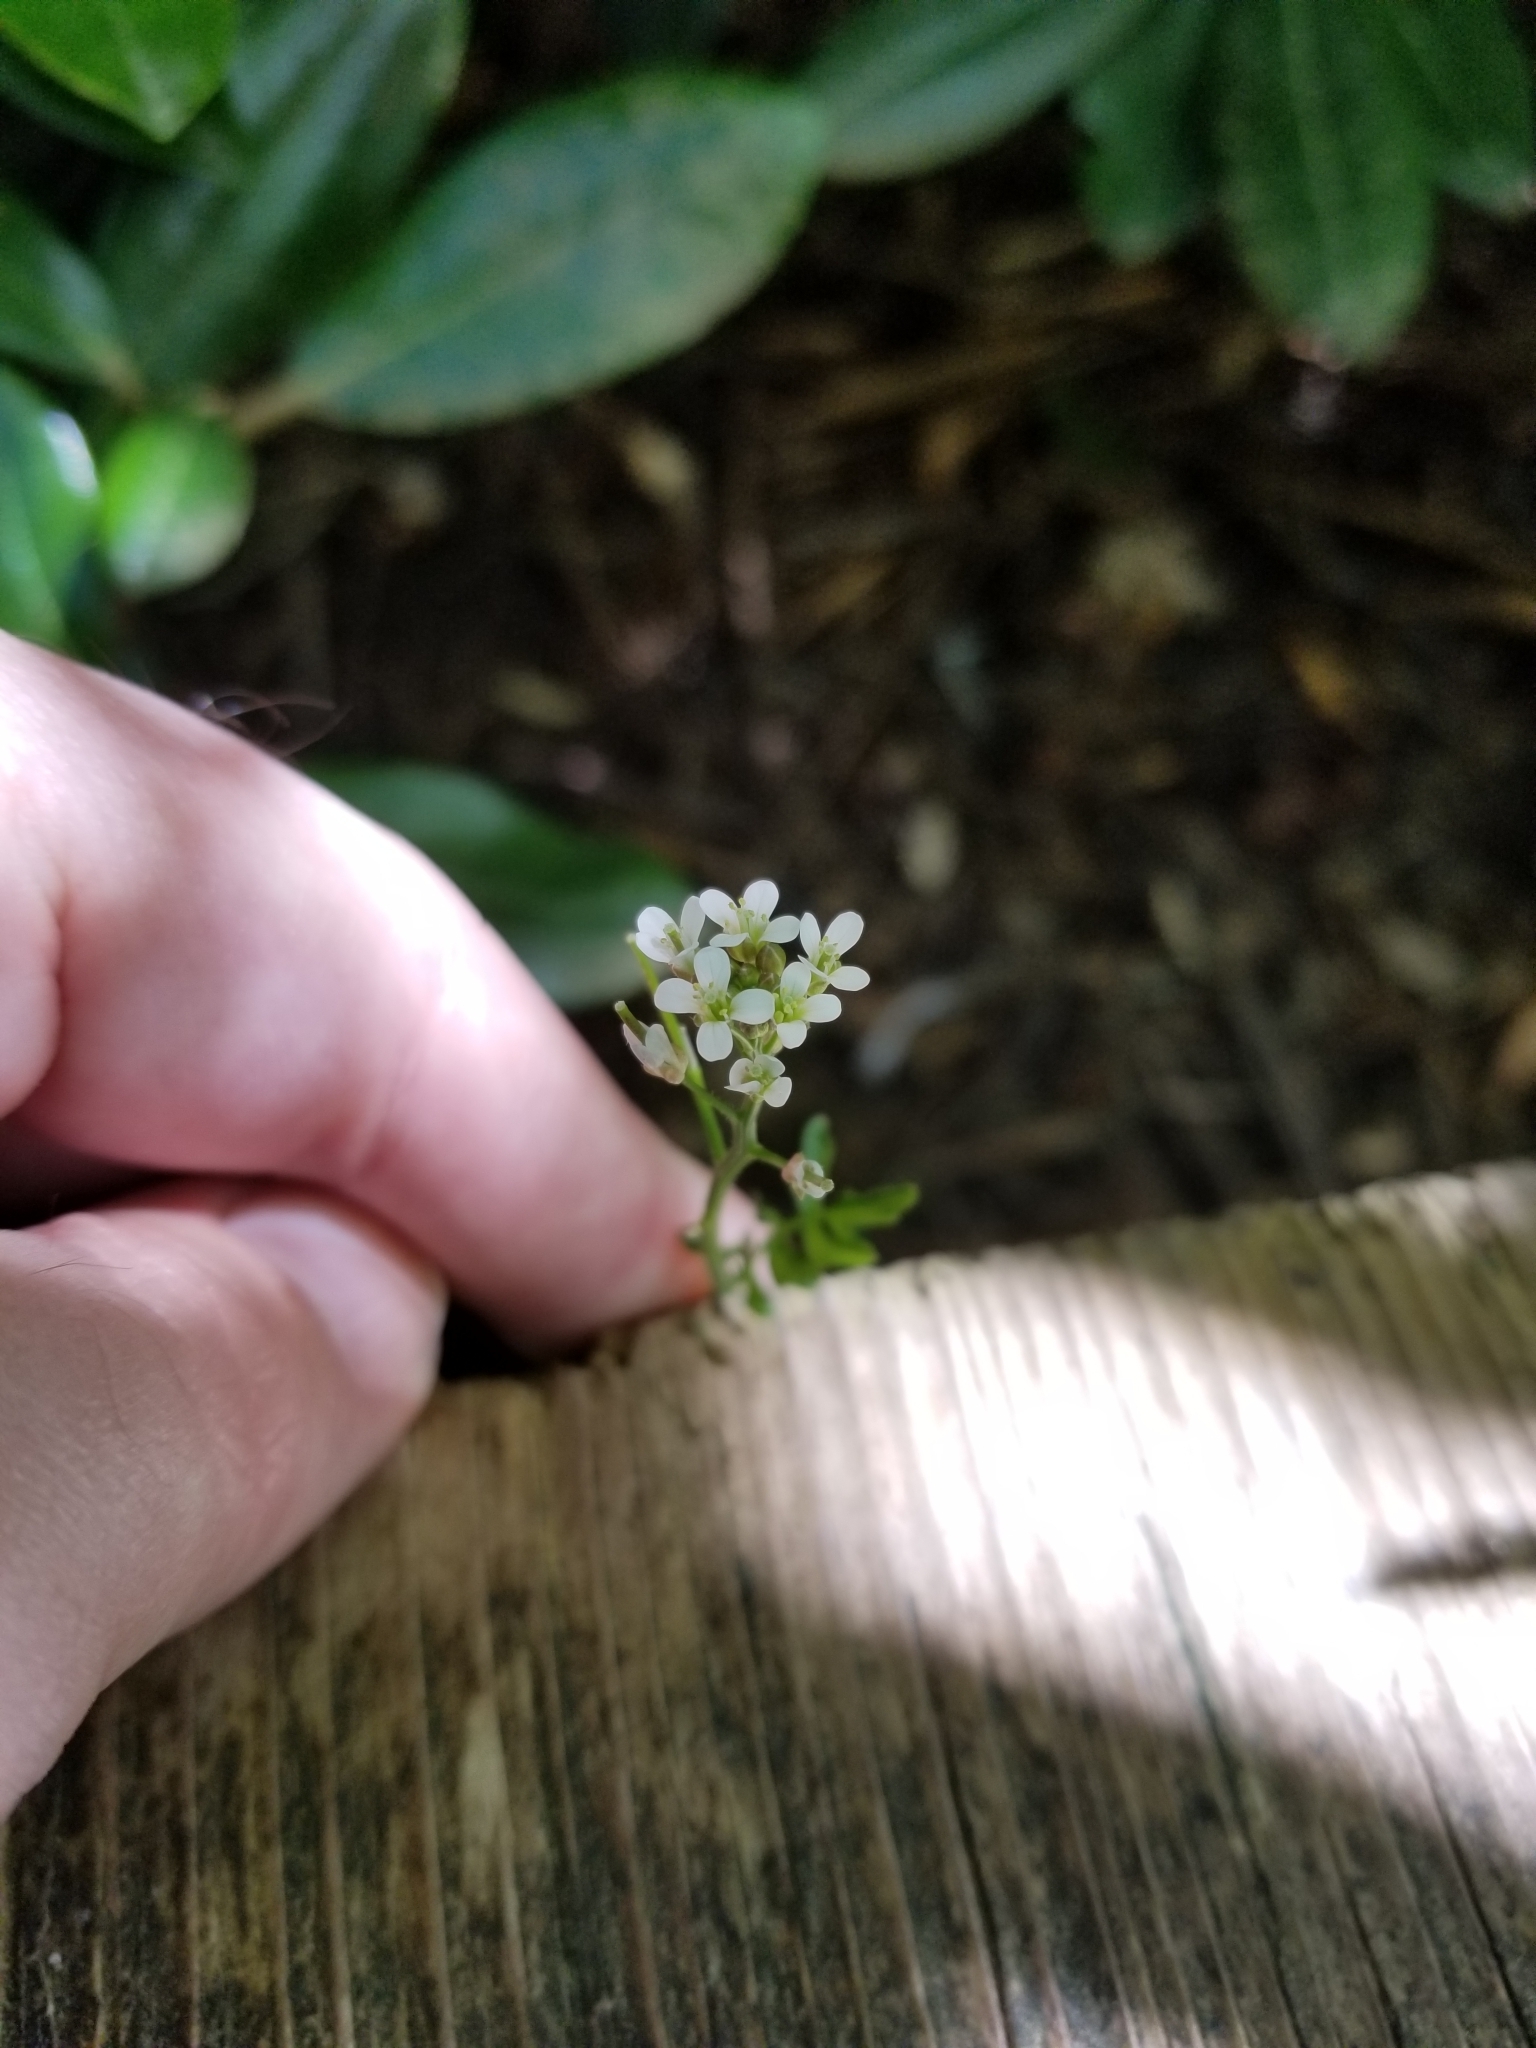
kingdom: Plantae
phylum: Tracheophyta
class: Magnoliopsida
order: Brassicales
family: Brassicaceae
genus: Cardamine
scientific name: Cardamine flexuosa
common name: Woodland bittercress
